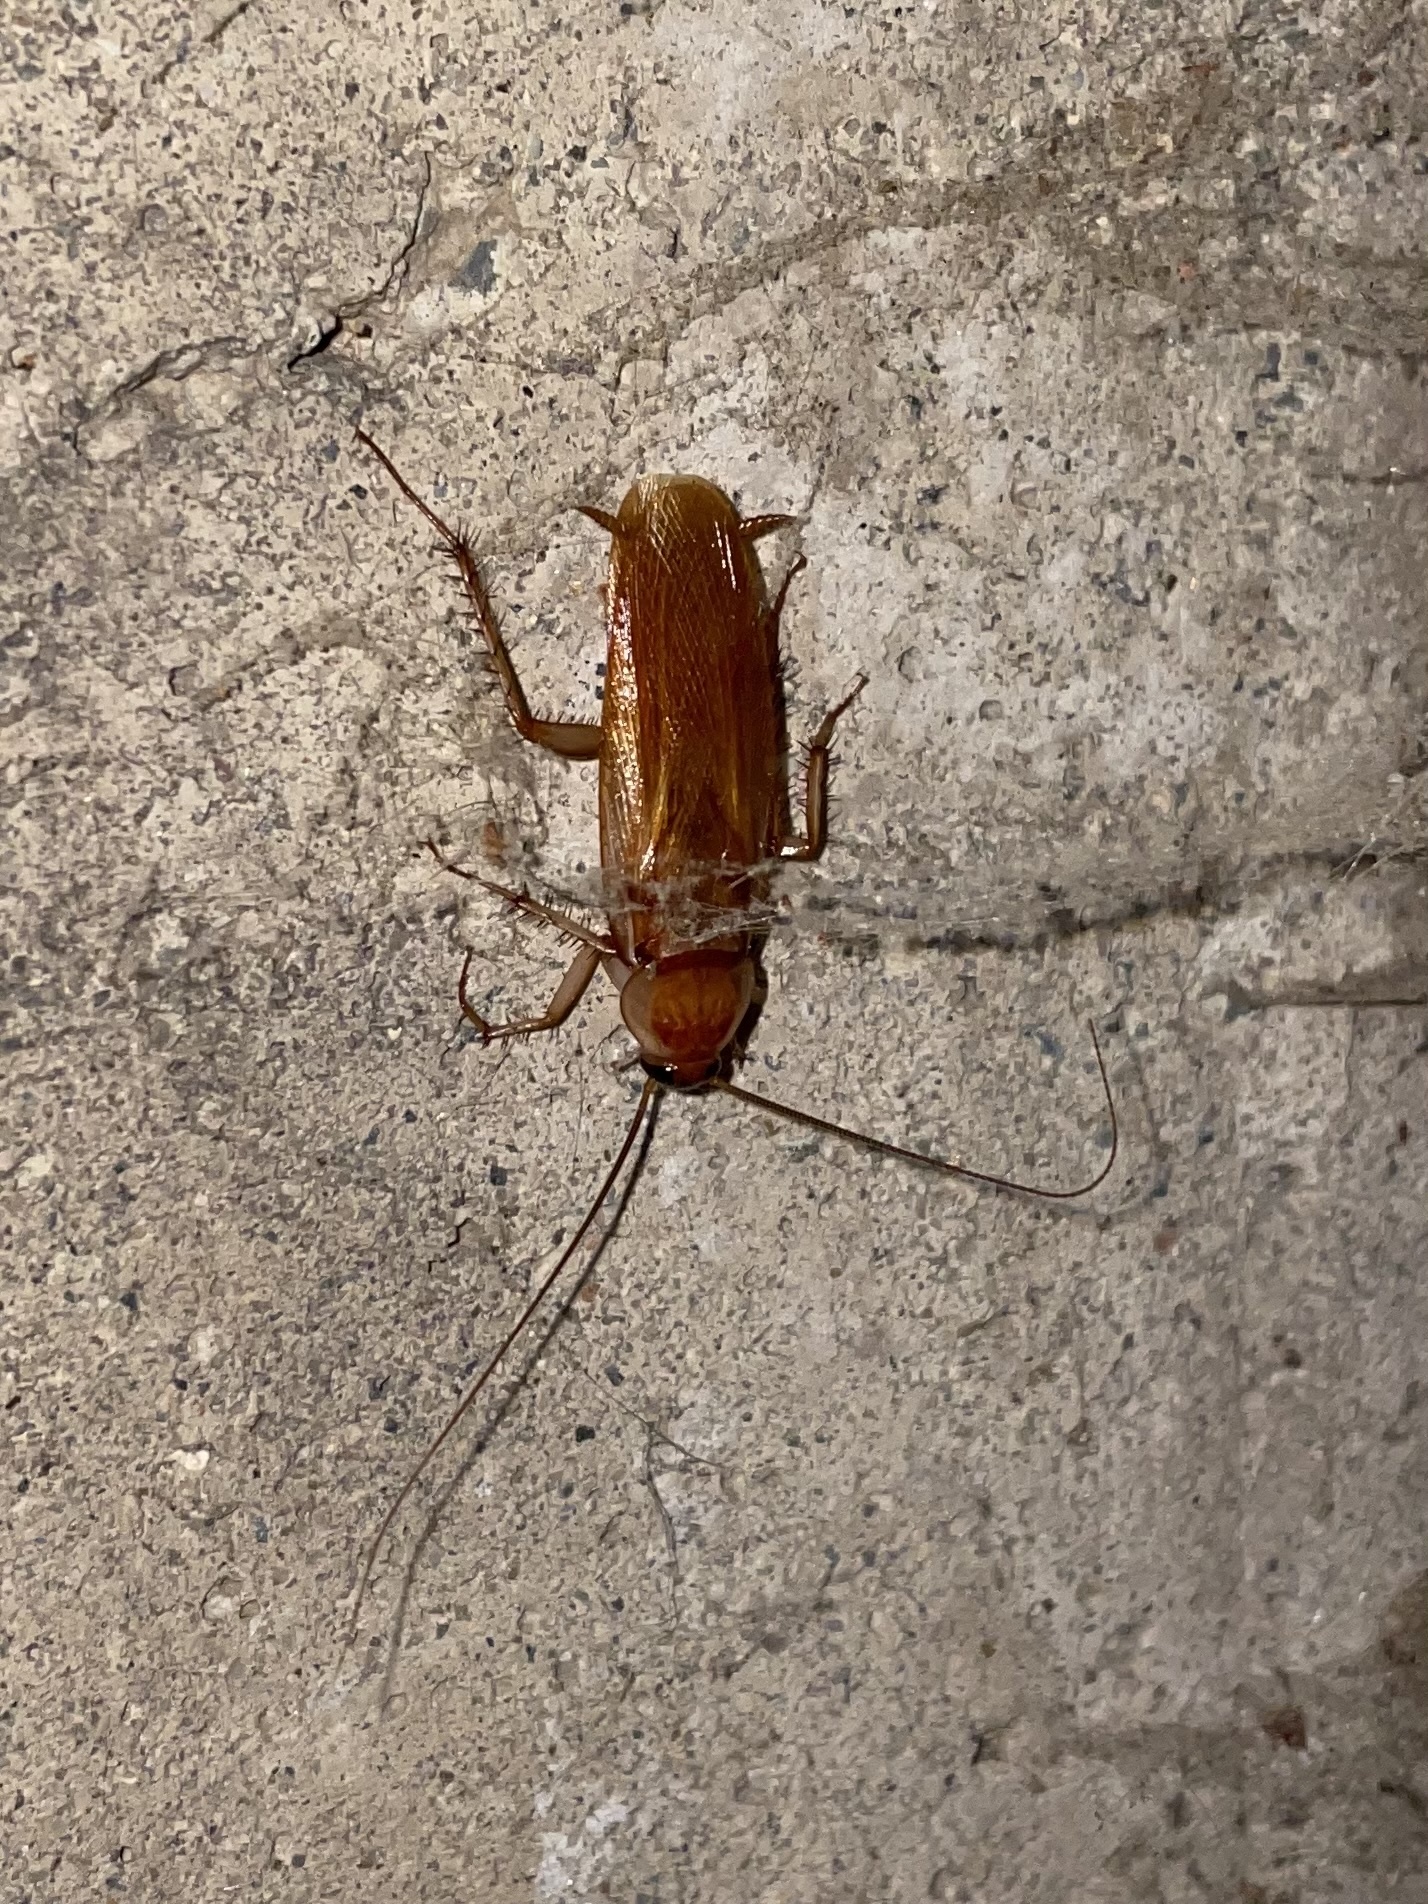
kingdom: Animalia
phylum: Arthropoda
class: Insecta
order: Blattodea
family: Blattidae
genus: Periplaneta
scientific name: Periplaneta lateralis
